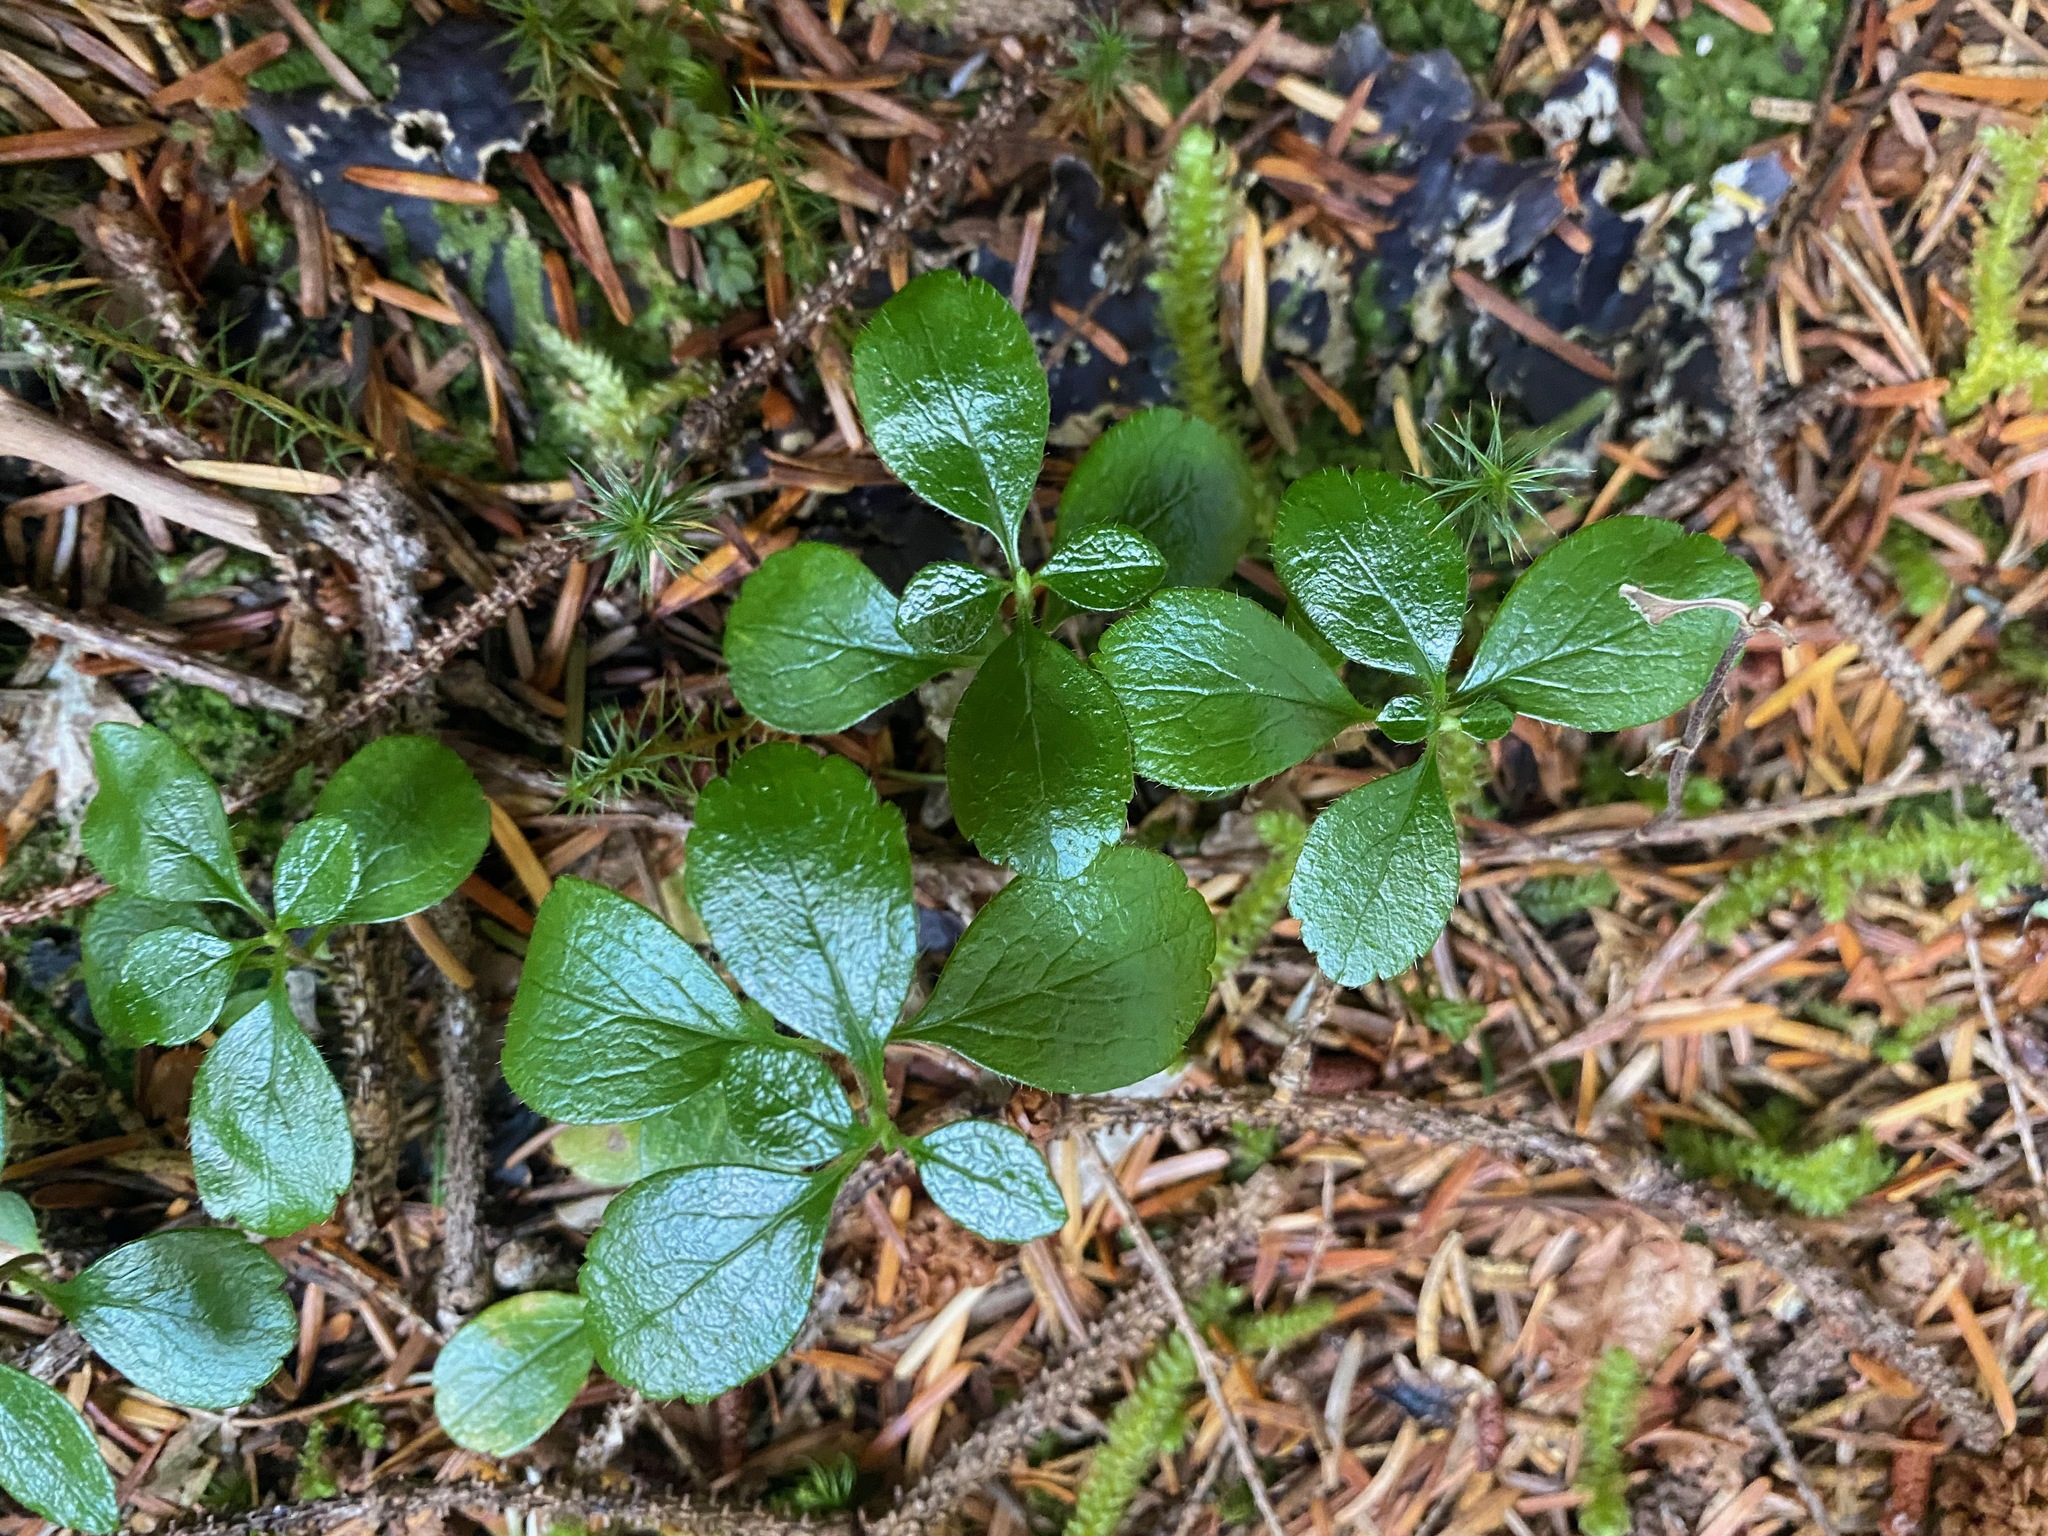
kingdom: Plantae
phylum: Tracheophyta
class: Magnoliopsida
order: Dipsacales
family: Caprifoliaceae
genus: Linnaea
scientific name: Linnaea borealis
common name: Twinflower
